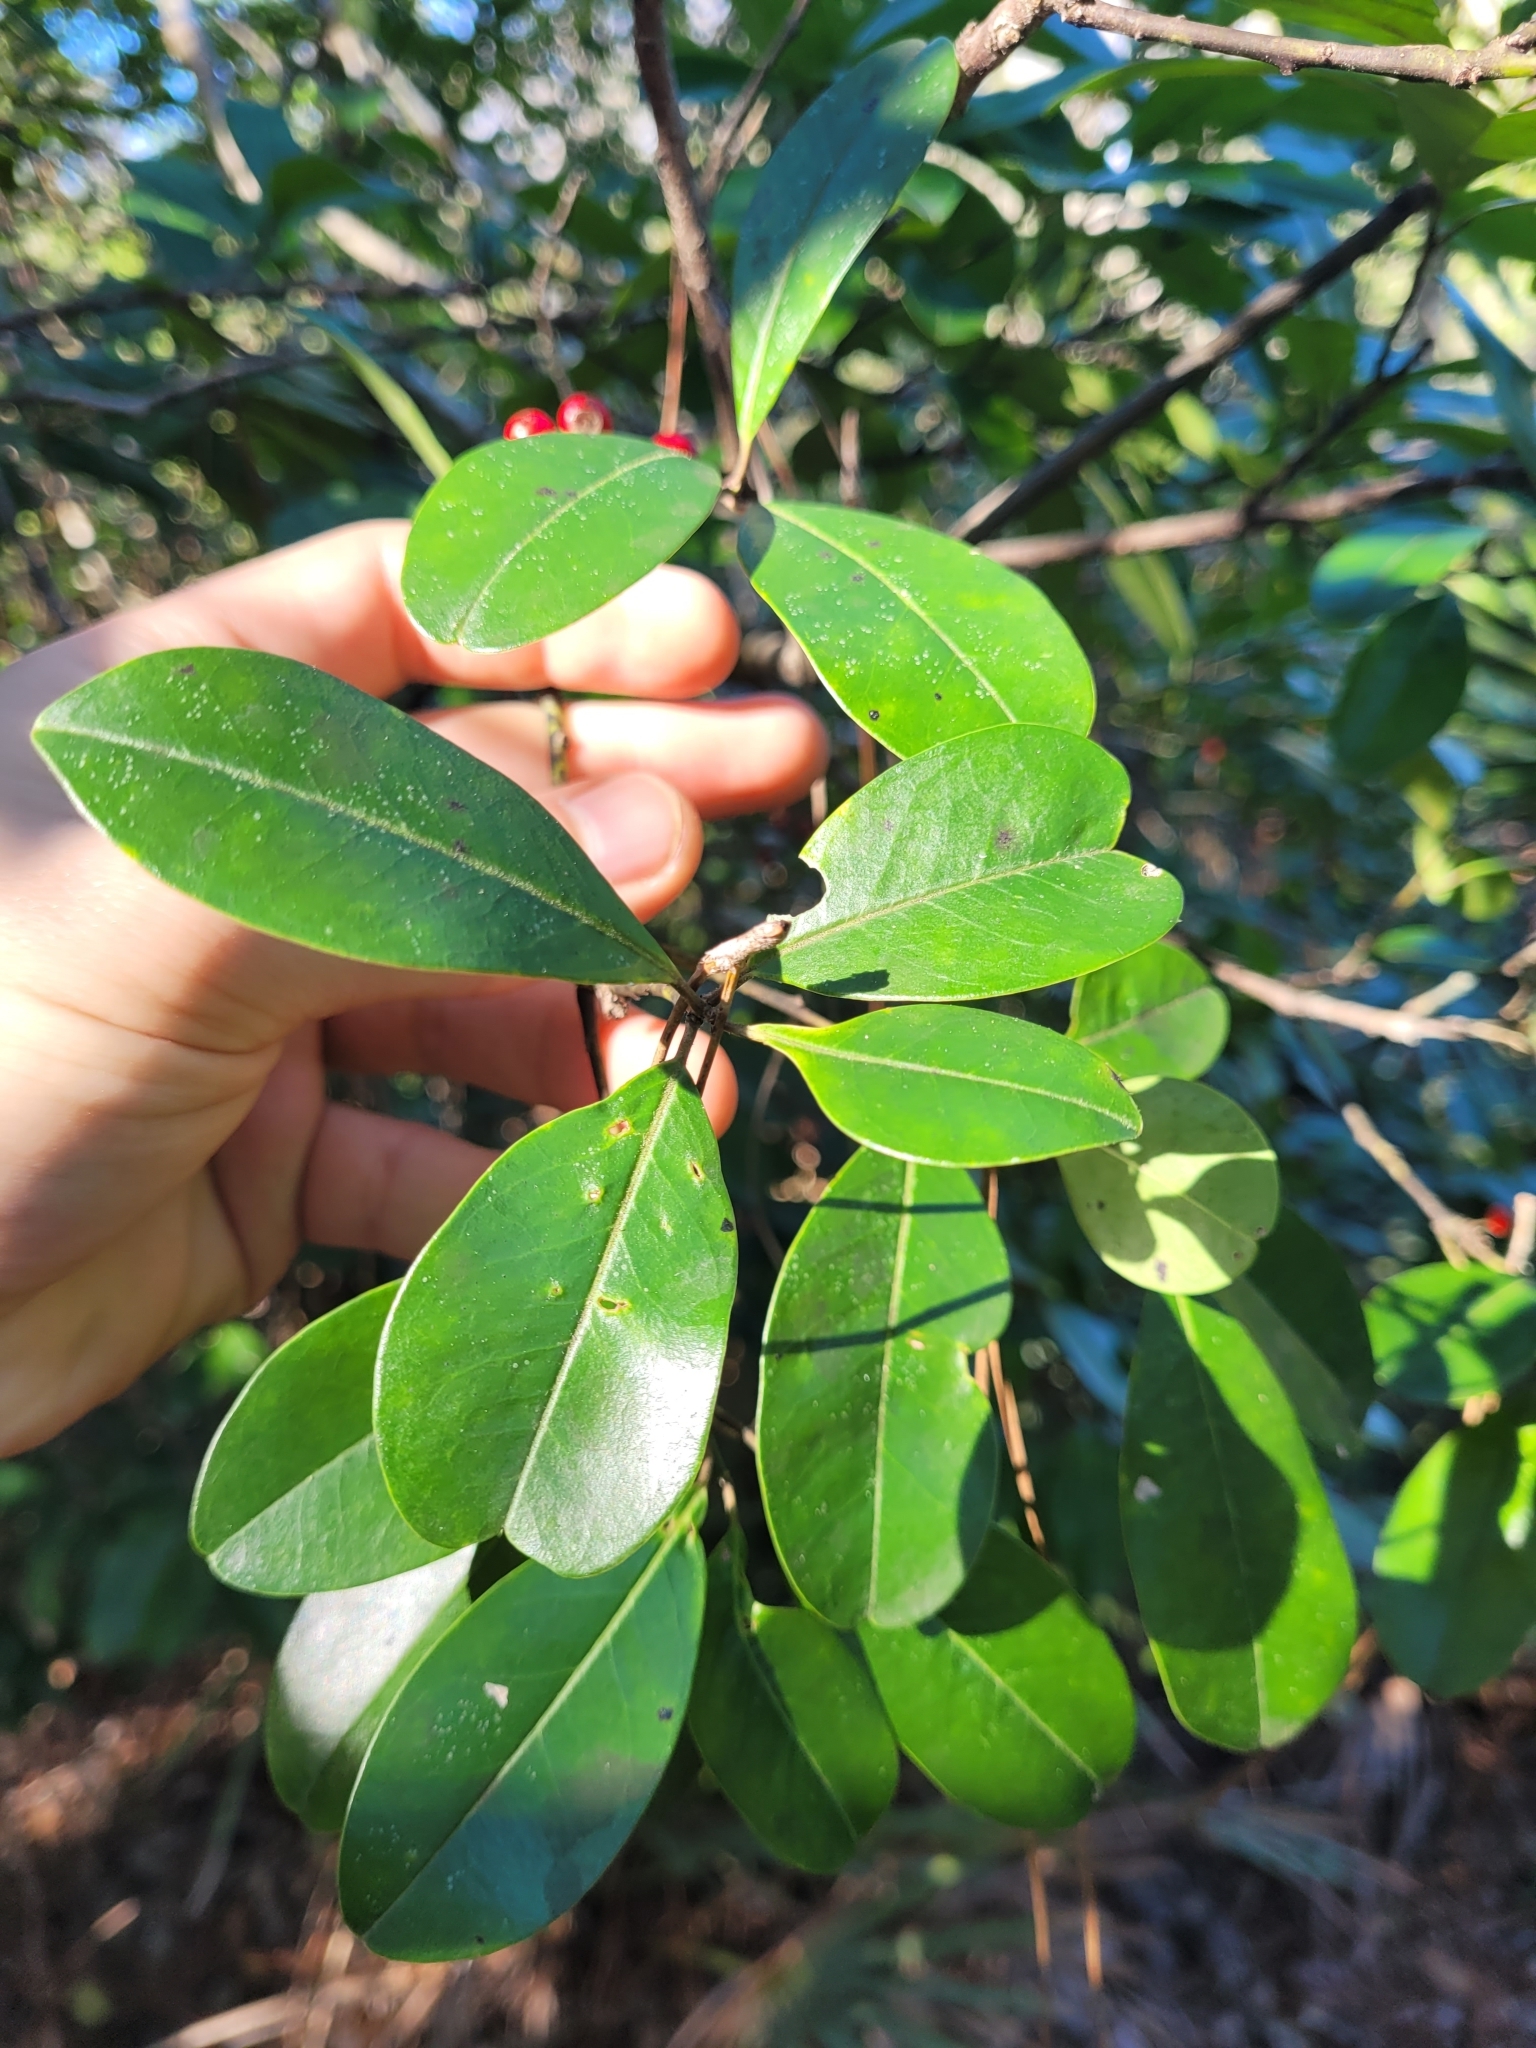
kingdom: Plantae
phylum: Tracheophyta
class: Magnoliopsida
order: Aquifoliales
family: Aquifoliaceae
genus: Ilex
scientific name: Ilex cassine
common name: Dahoon
